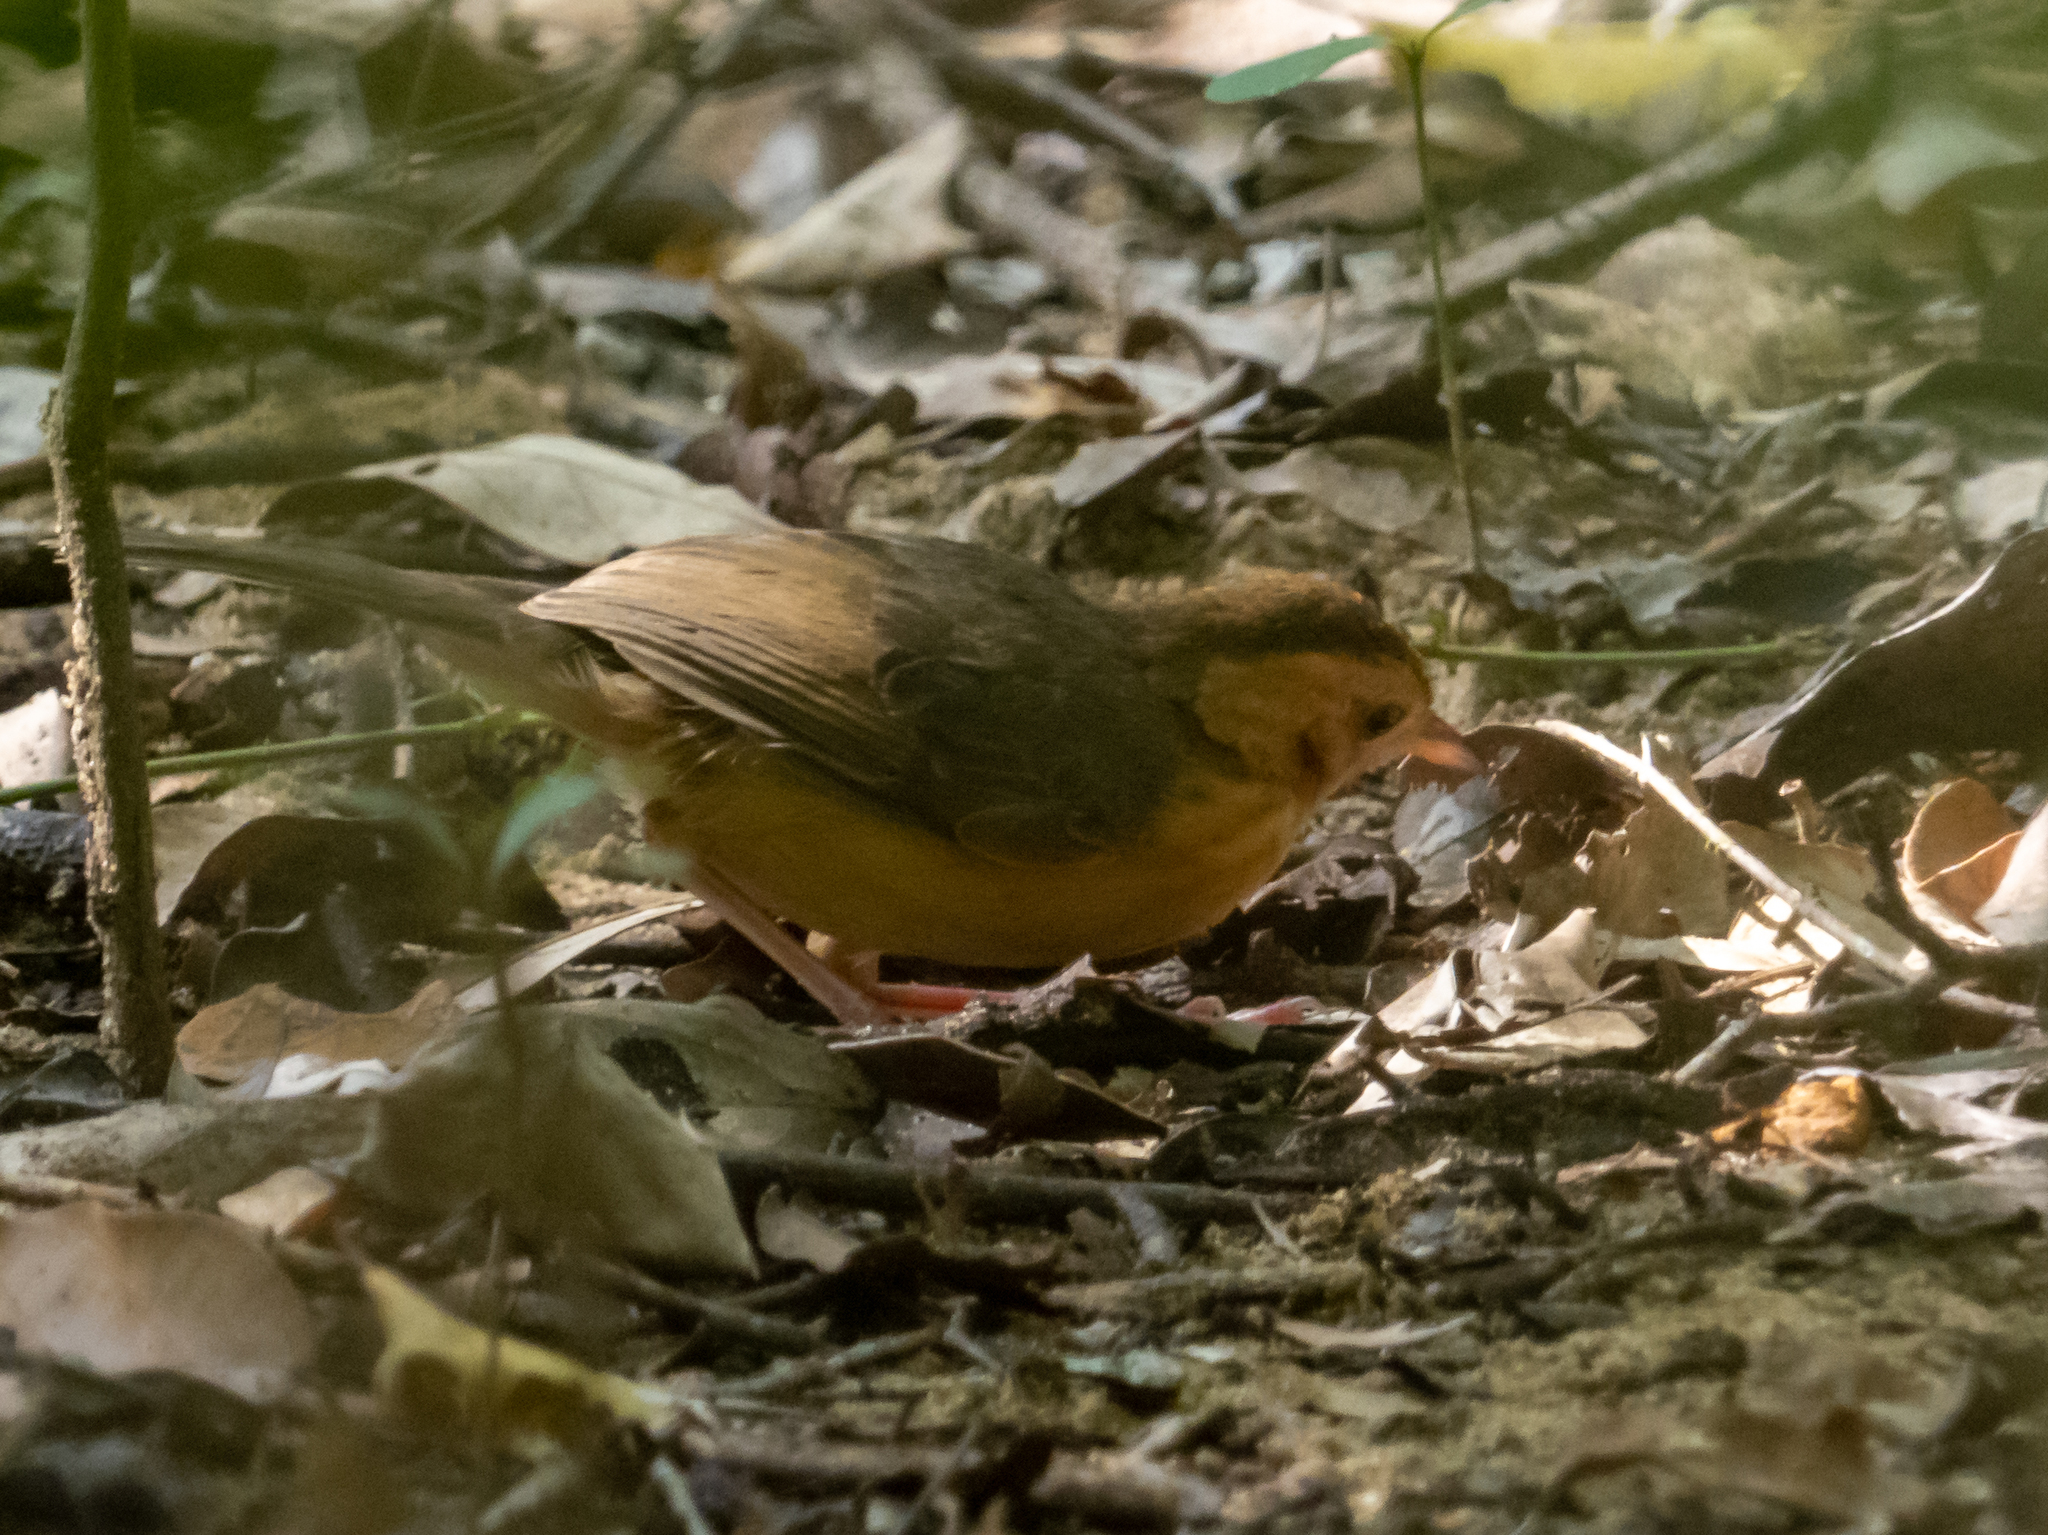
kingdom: Animalia
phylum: Chordata
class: Aves
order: Passeriformes
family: Pellorneidae
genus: Pellorneum
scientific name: Pellorneum fuscocapillus
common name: Brown-capped babbler
